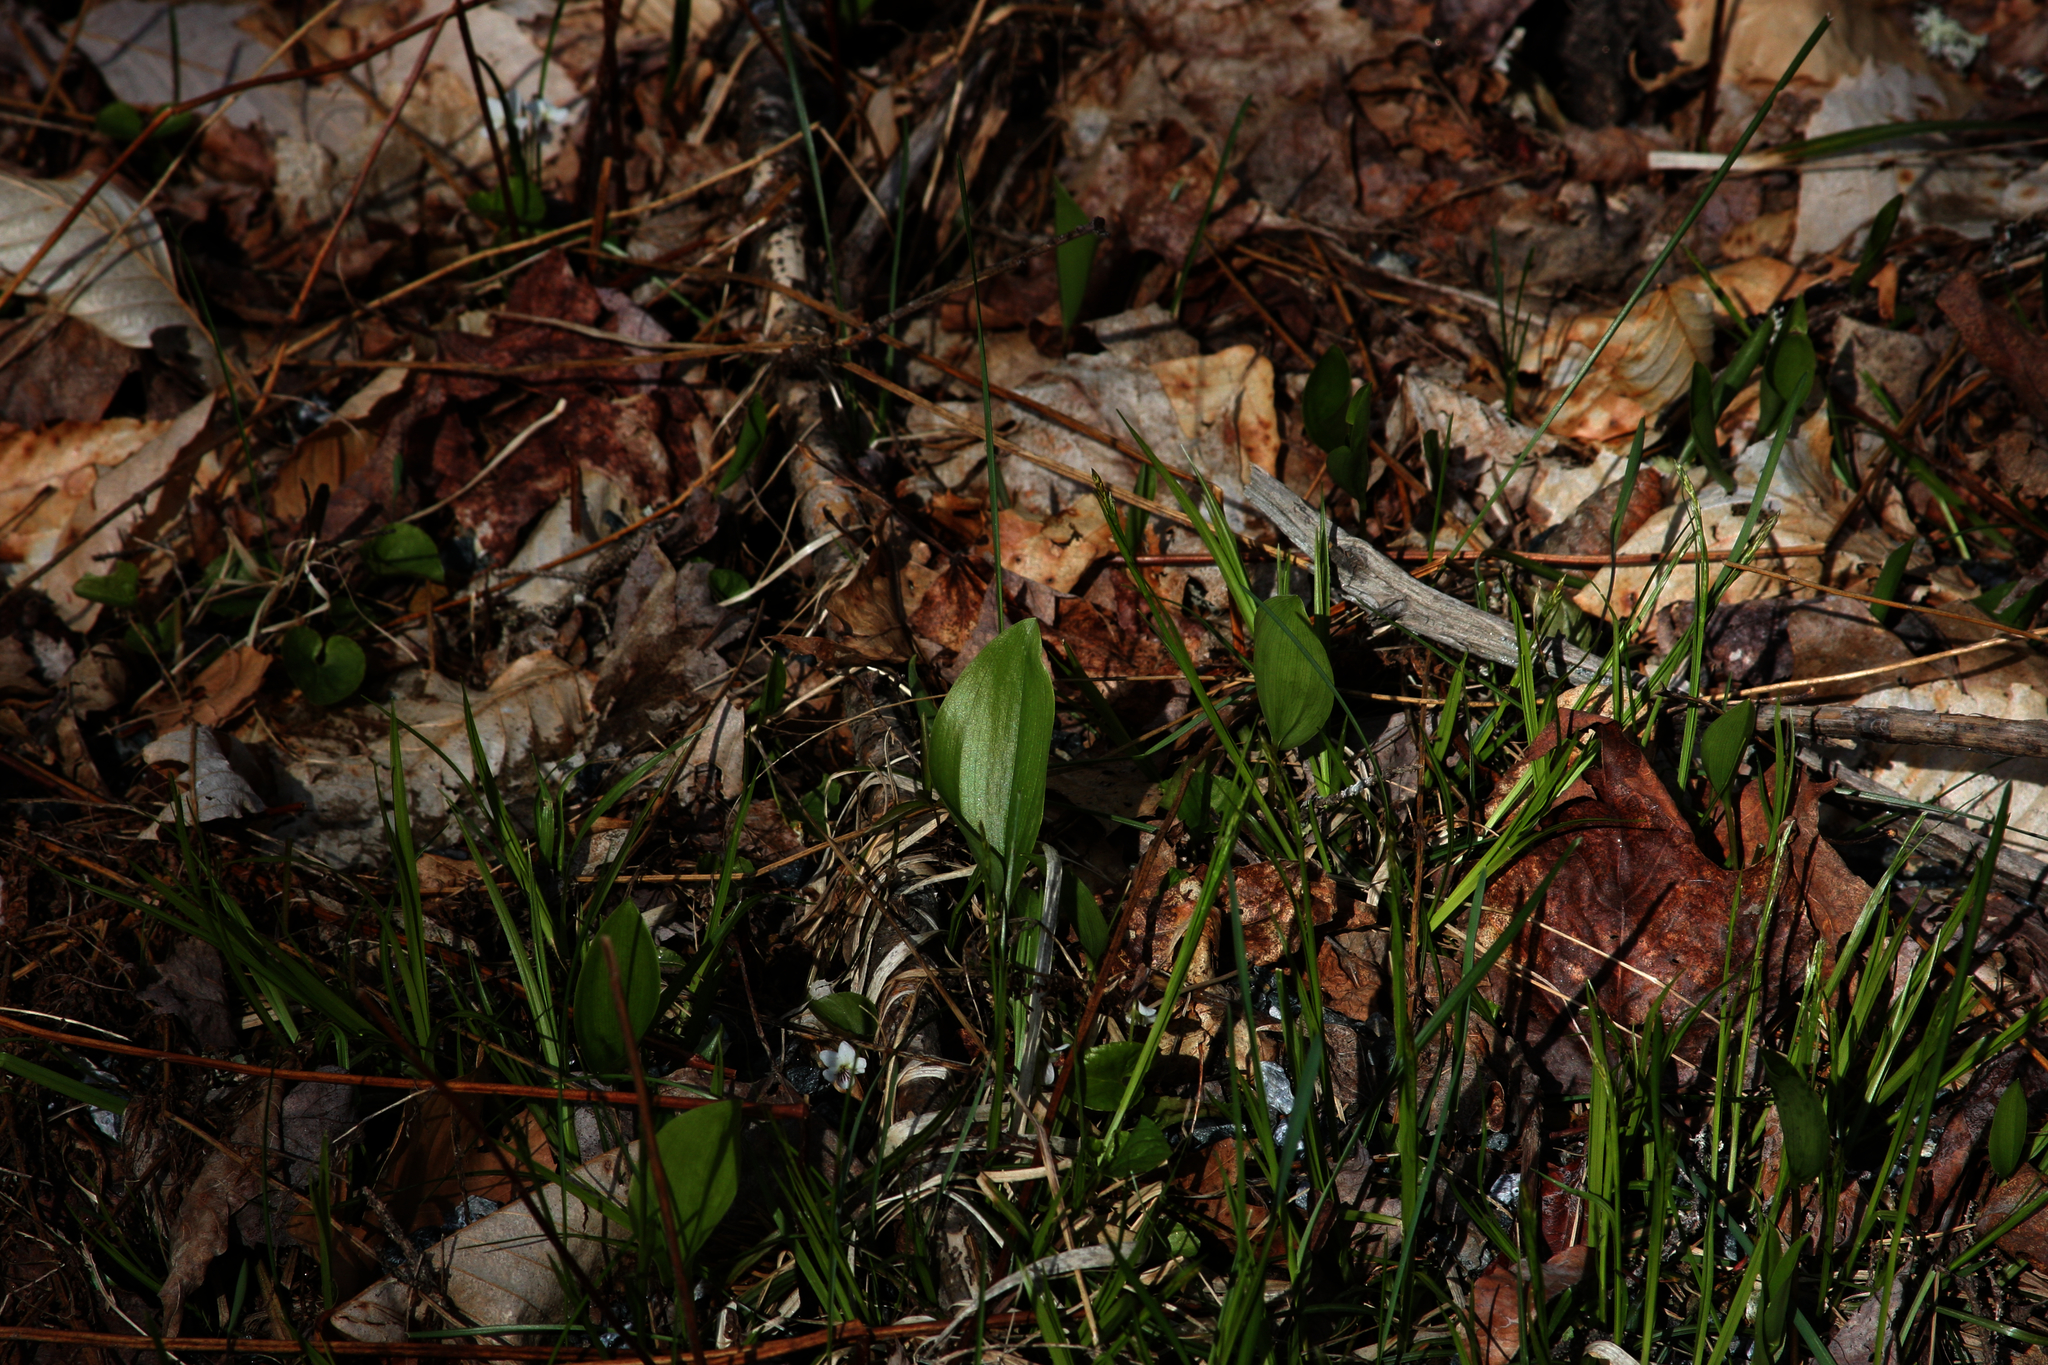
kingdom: Plantae
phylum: Tracheophyta
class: Liliopsida
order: Asparagales
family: Asparagaceae
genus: Maianthemum
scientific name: Maianthemum canadense
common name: False lily-of-the-valley
